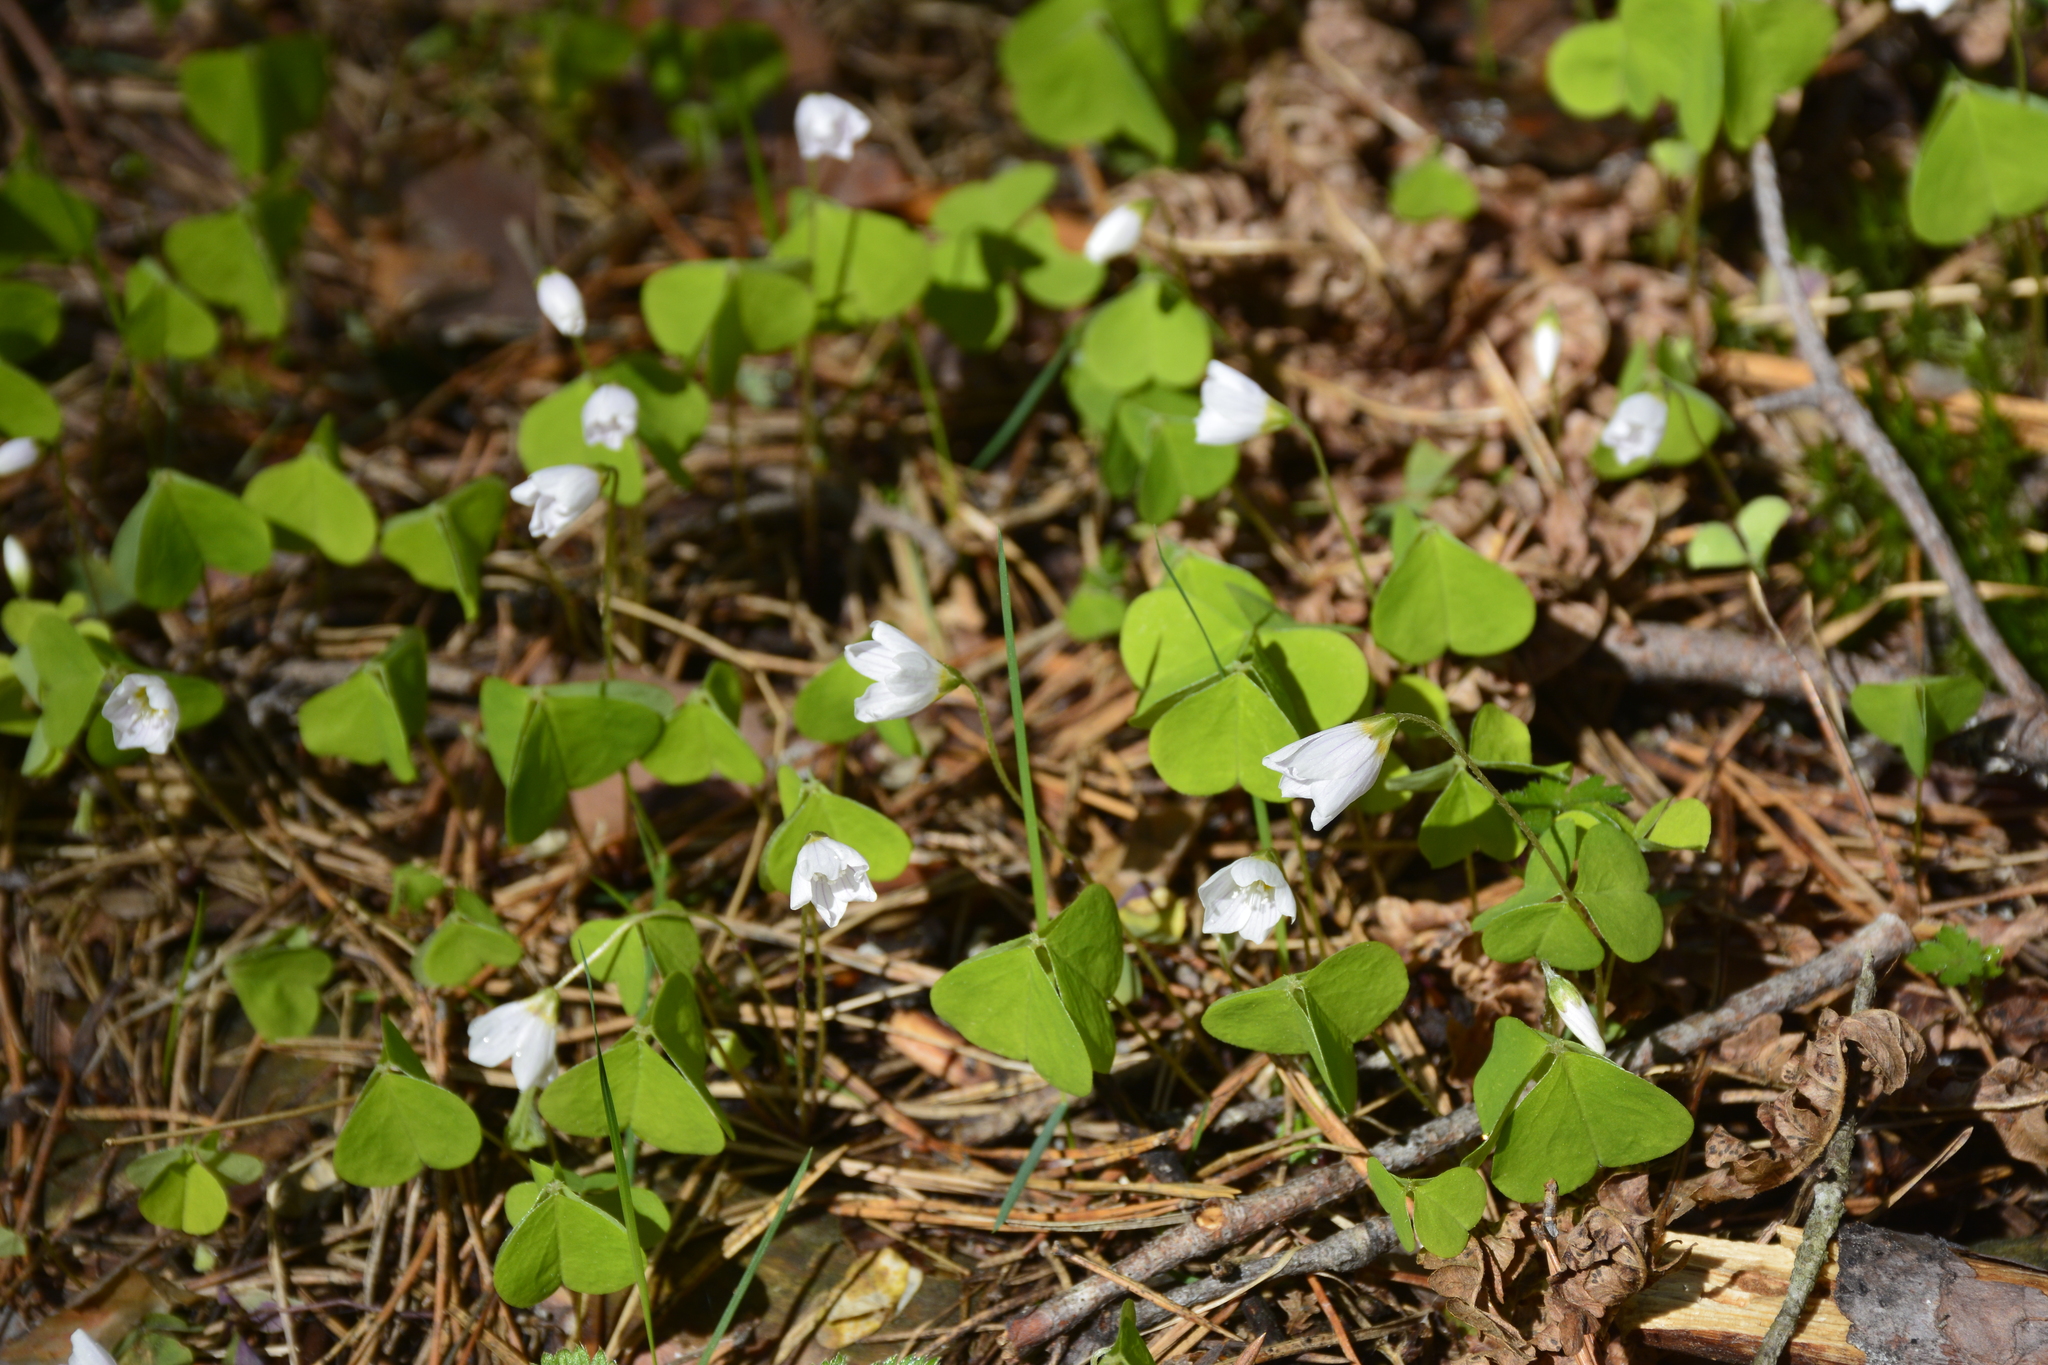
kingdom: Plantae
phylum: Tracheophyta
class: Magnoliopsida
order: Oxalidales
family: Oxalidaceae
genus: Oxalis
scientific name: Oxalis acetosella
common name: Wood-sorrel
